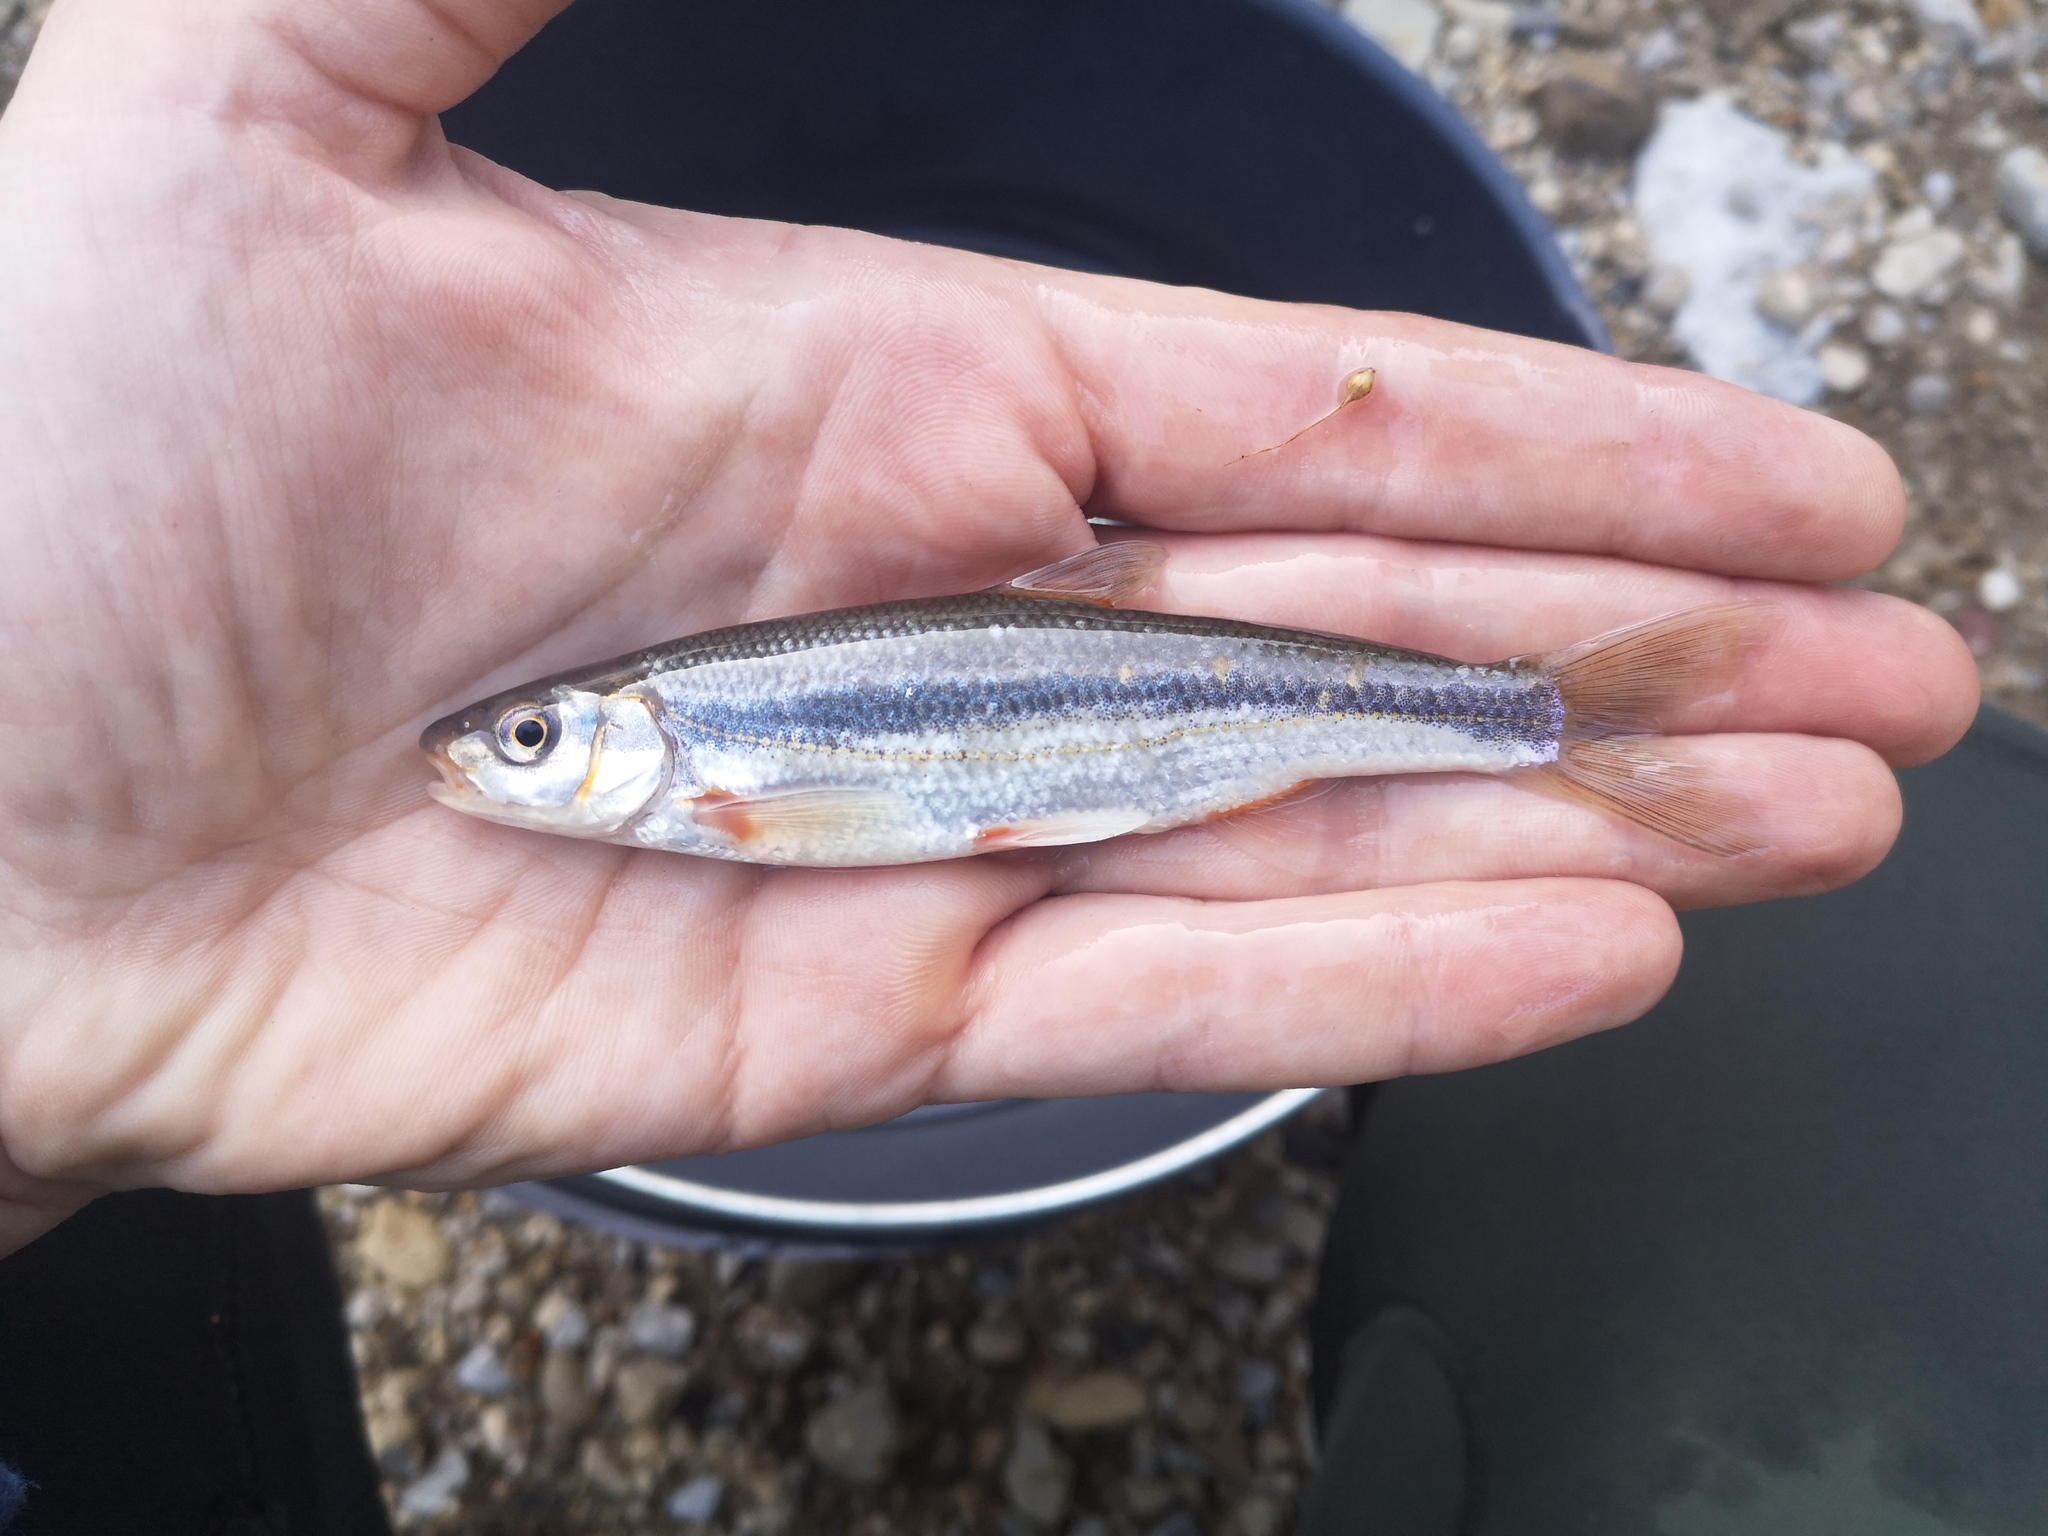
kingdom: Animalia
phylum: Chordata
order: Cypriniformes
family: Cyprinidae
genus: Telestes
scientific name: Telestes souffia
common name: Souffia
